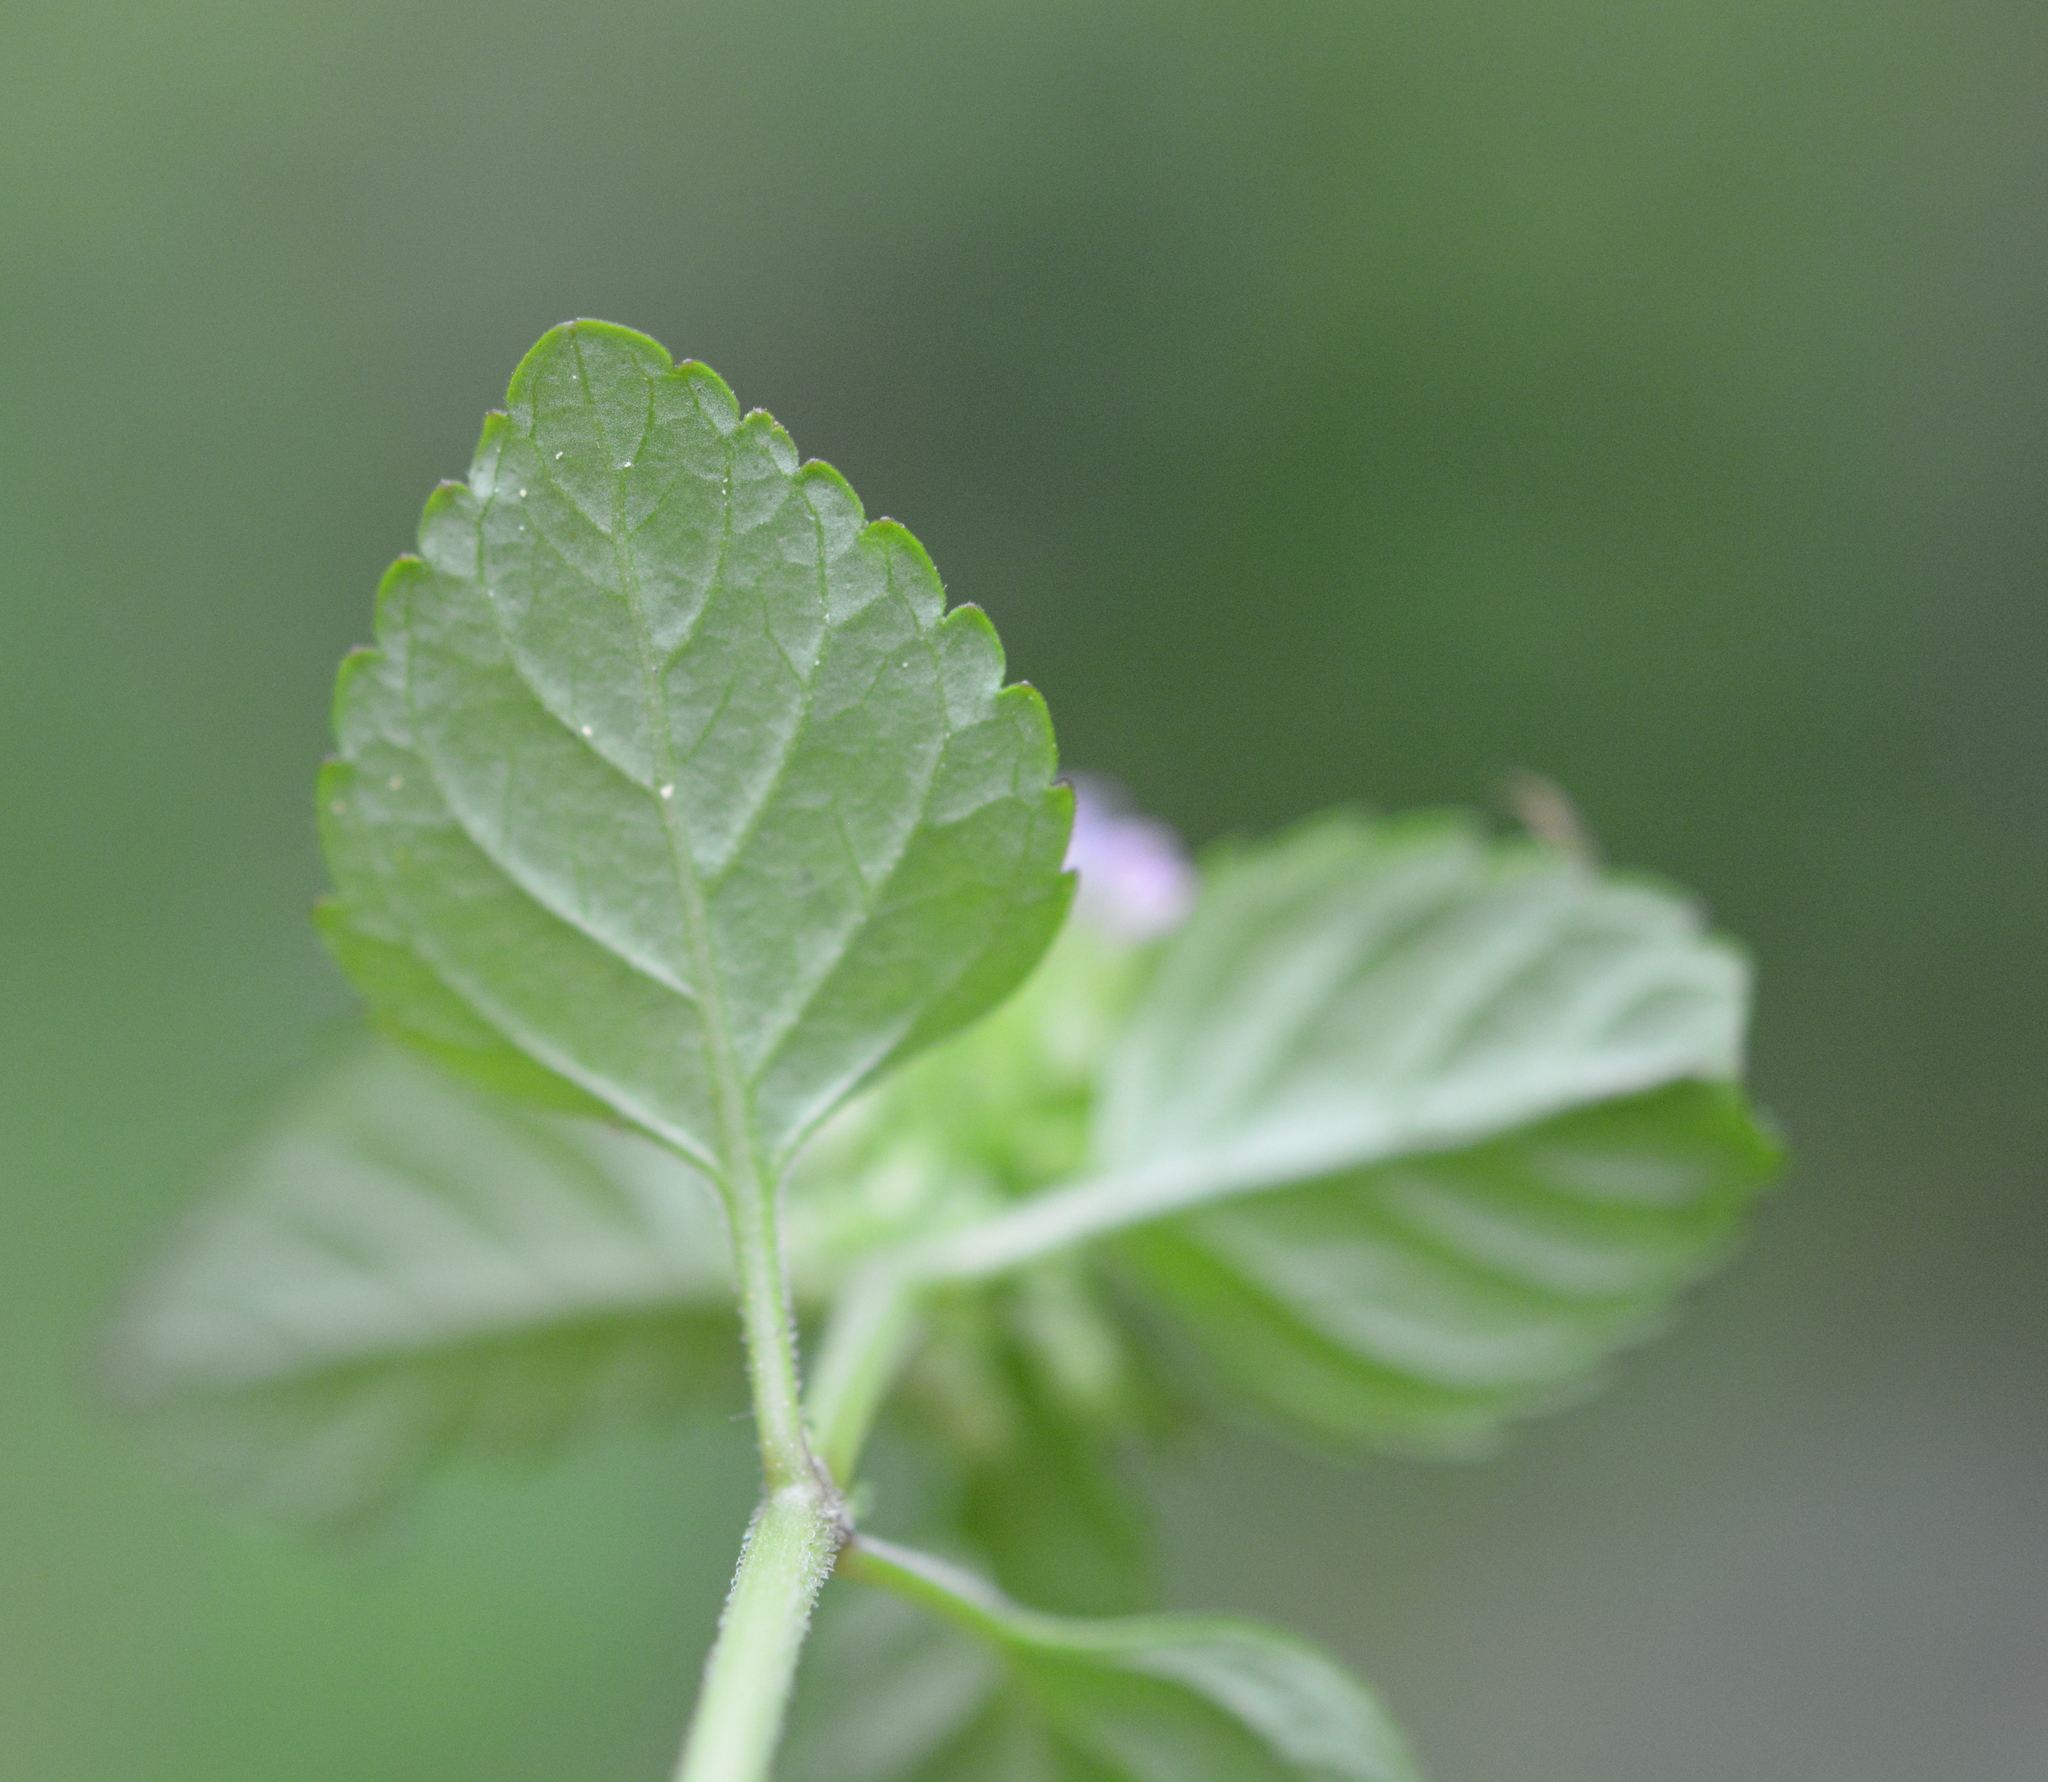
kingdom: Plantae
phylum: Tracheophyta
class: Magnoliopsida
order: Lamiales
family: Lamiaceae
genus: Clinopodium
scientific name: Clinopodium gracile
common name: Slender wild basil
